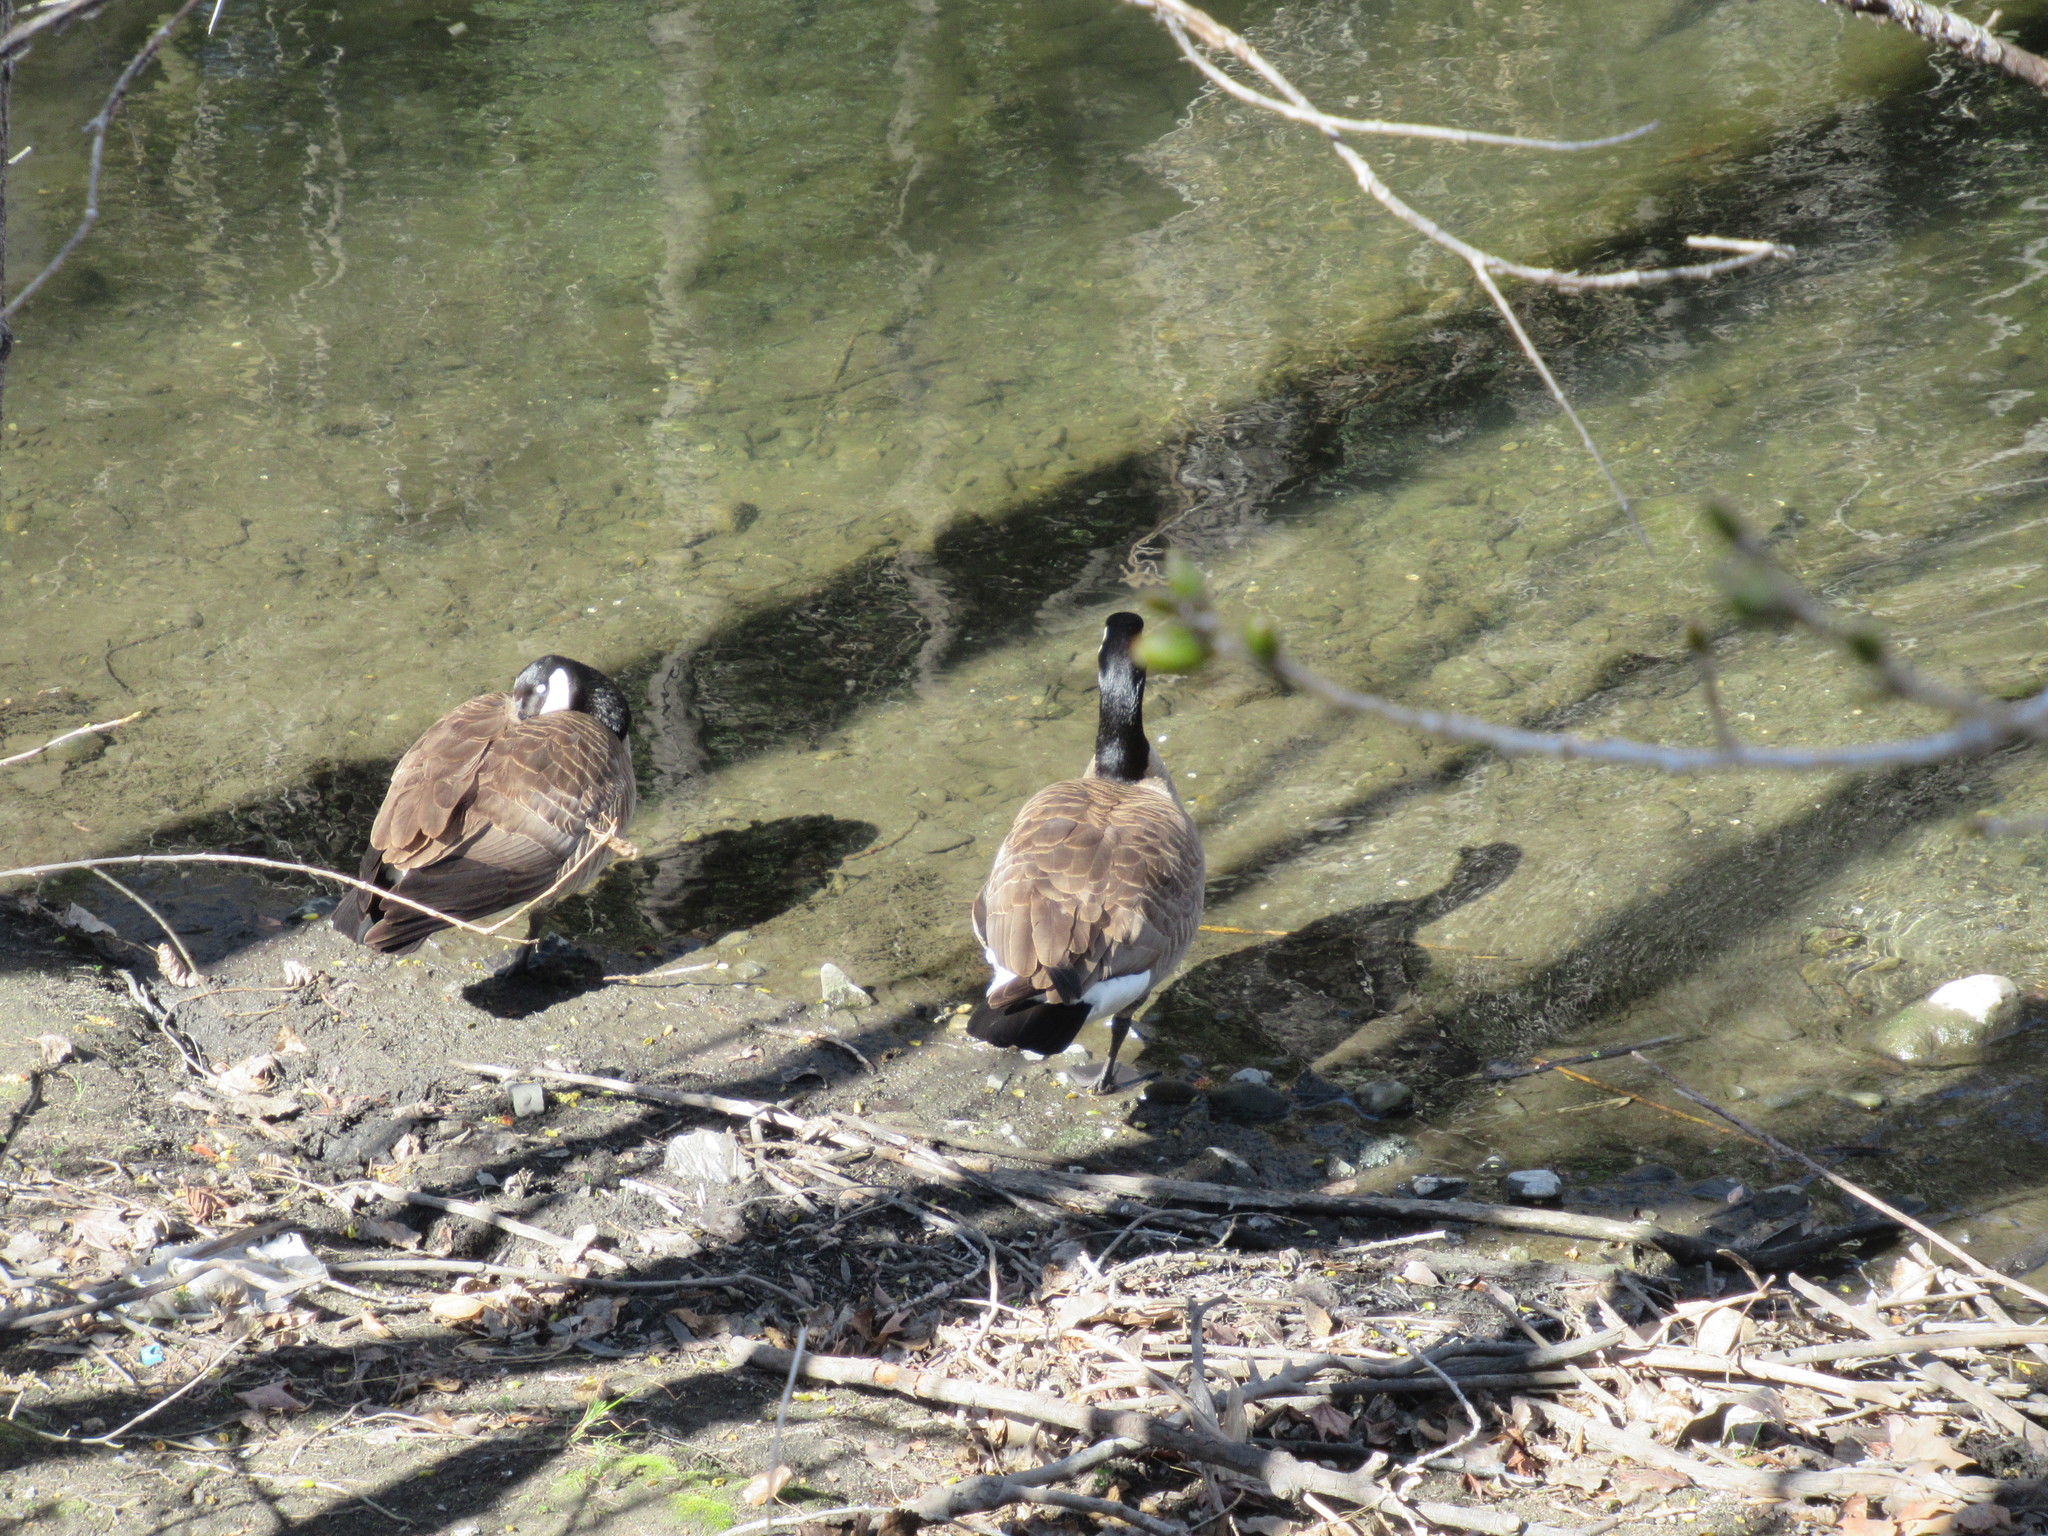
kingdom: Animalia
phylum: Chordata
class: Aves
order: Anseriformes
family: Anatidae
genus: Branta
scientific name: Branta canadensis
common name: Canada goose
